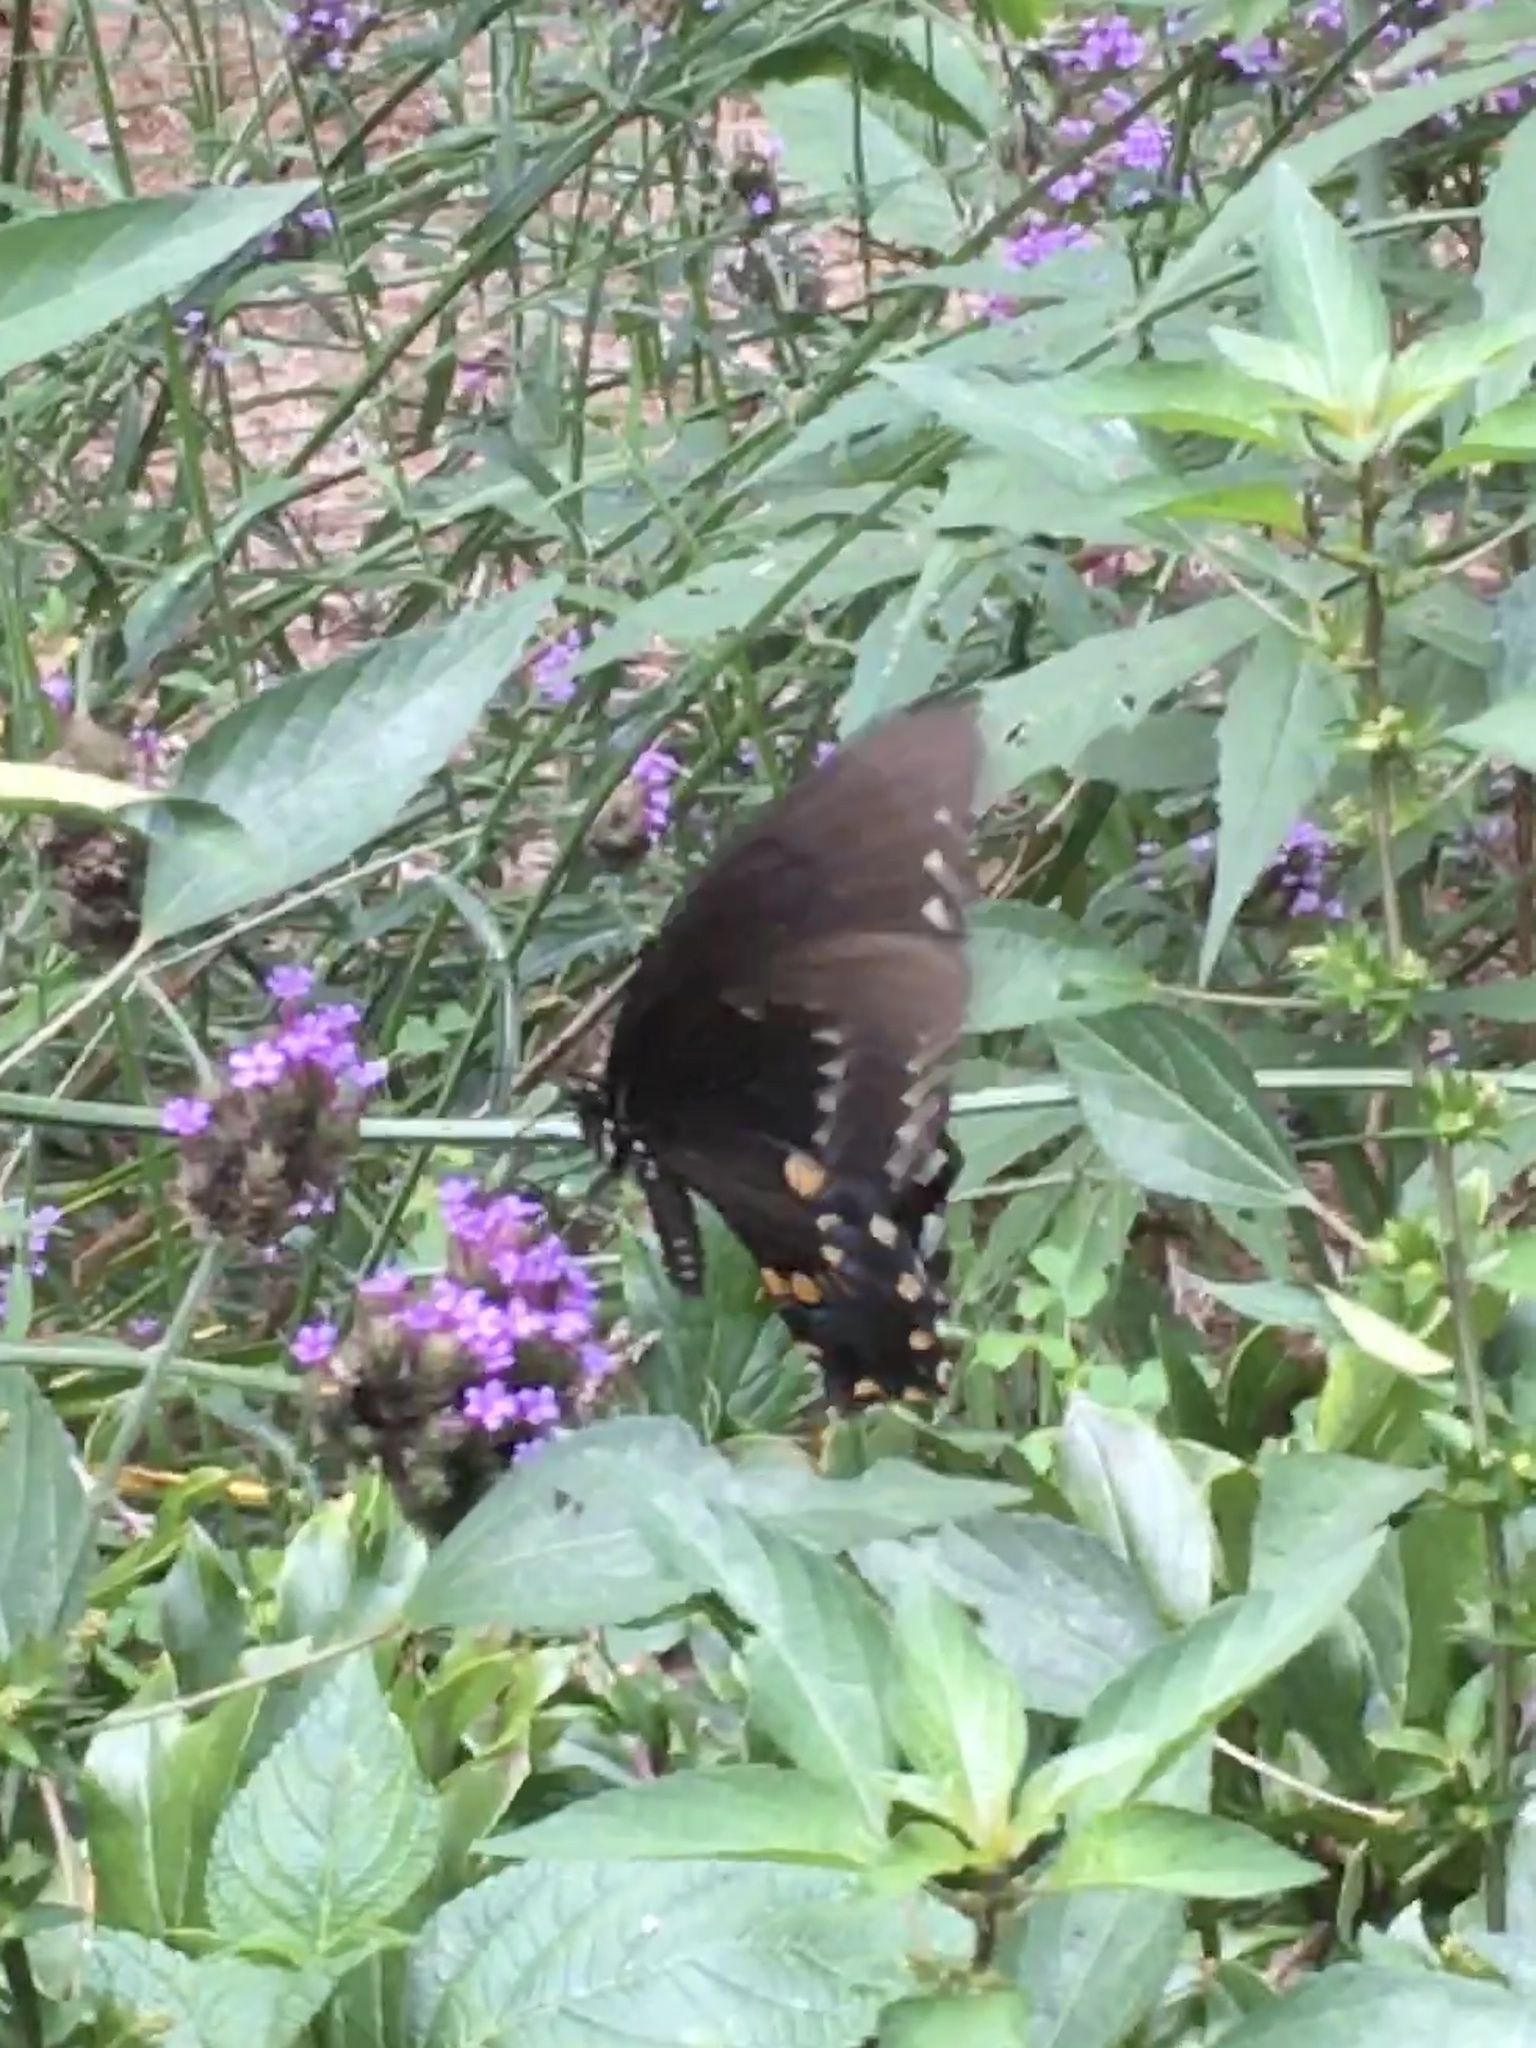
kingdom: Animalia
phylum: Arthropoda
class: Insecta
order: Lepidoptera
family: Papilionidae
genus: Papilio
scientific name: Papilio troilus
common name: Spicebush swallowtail
